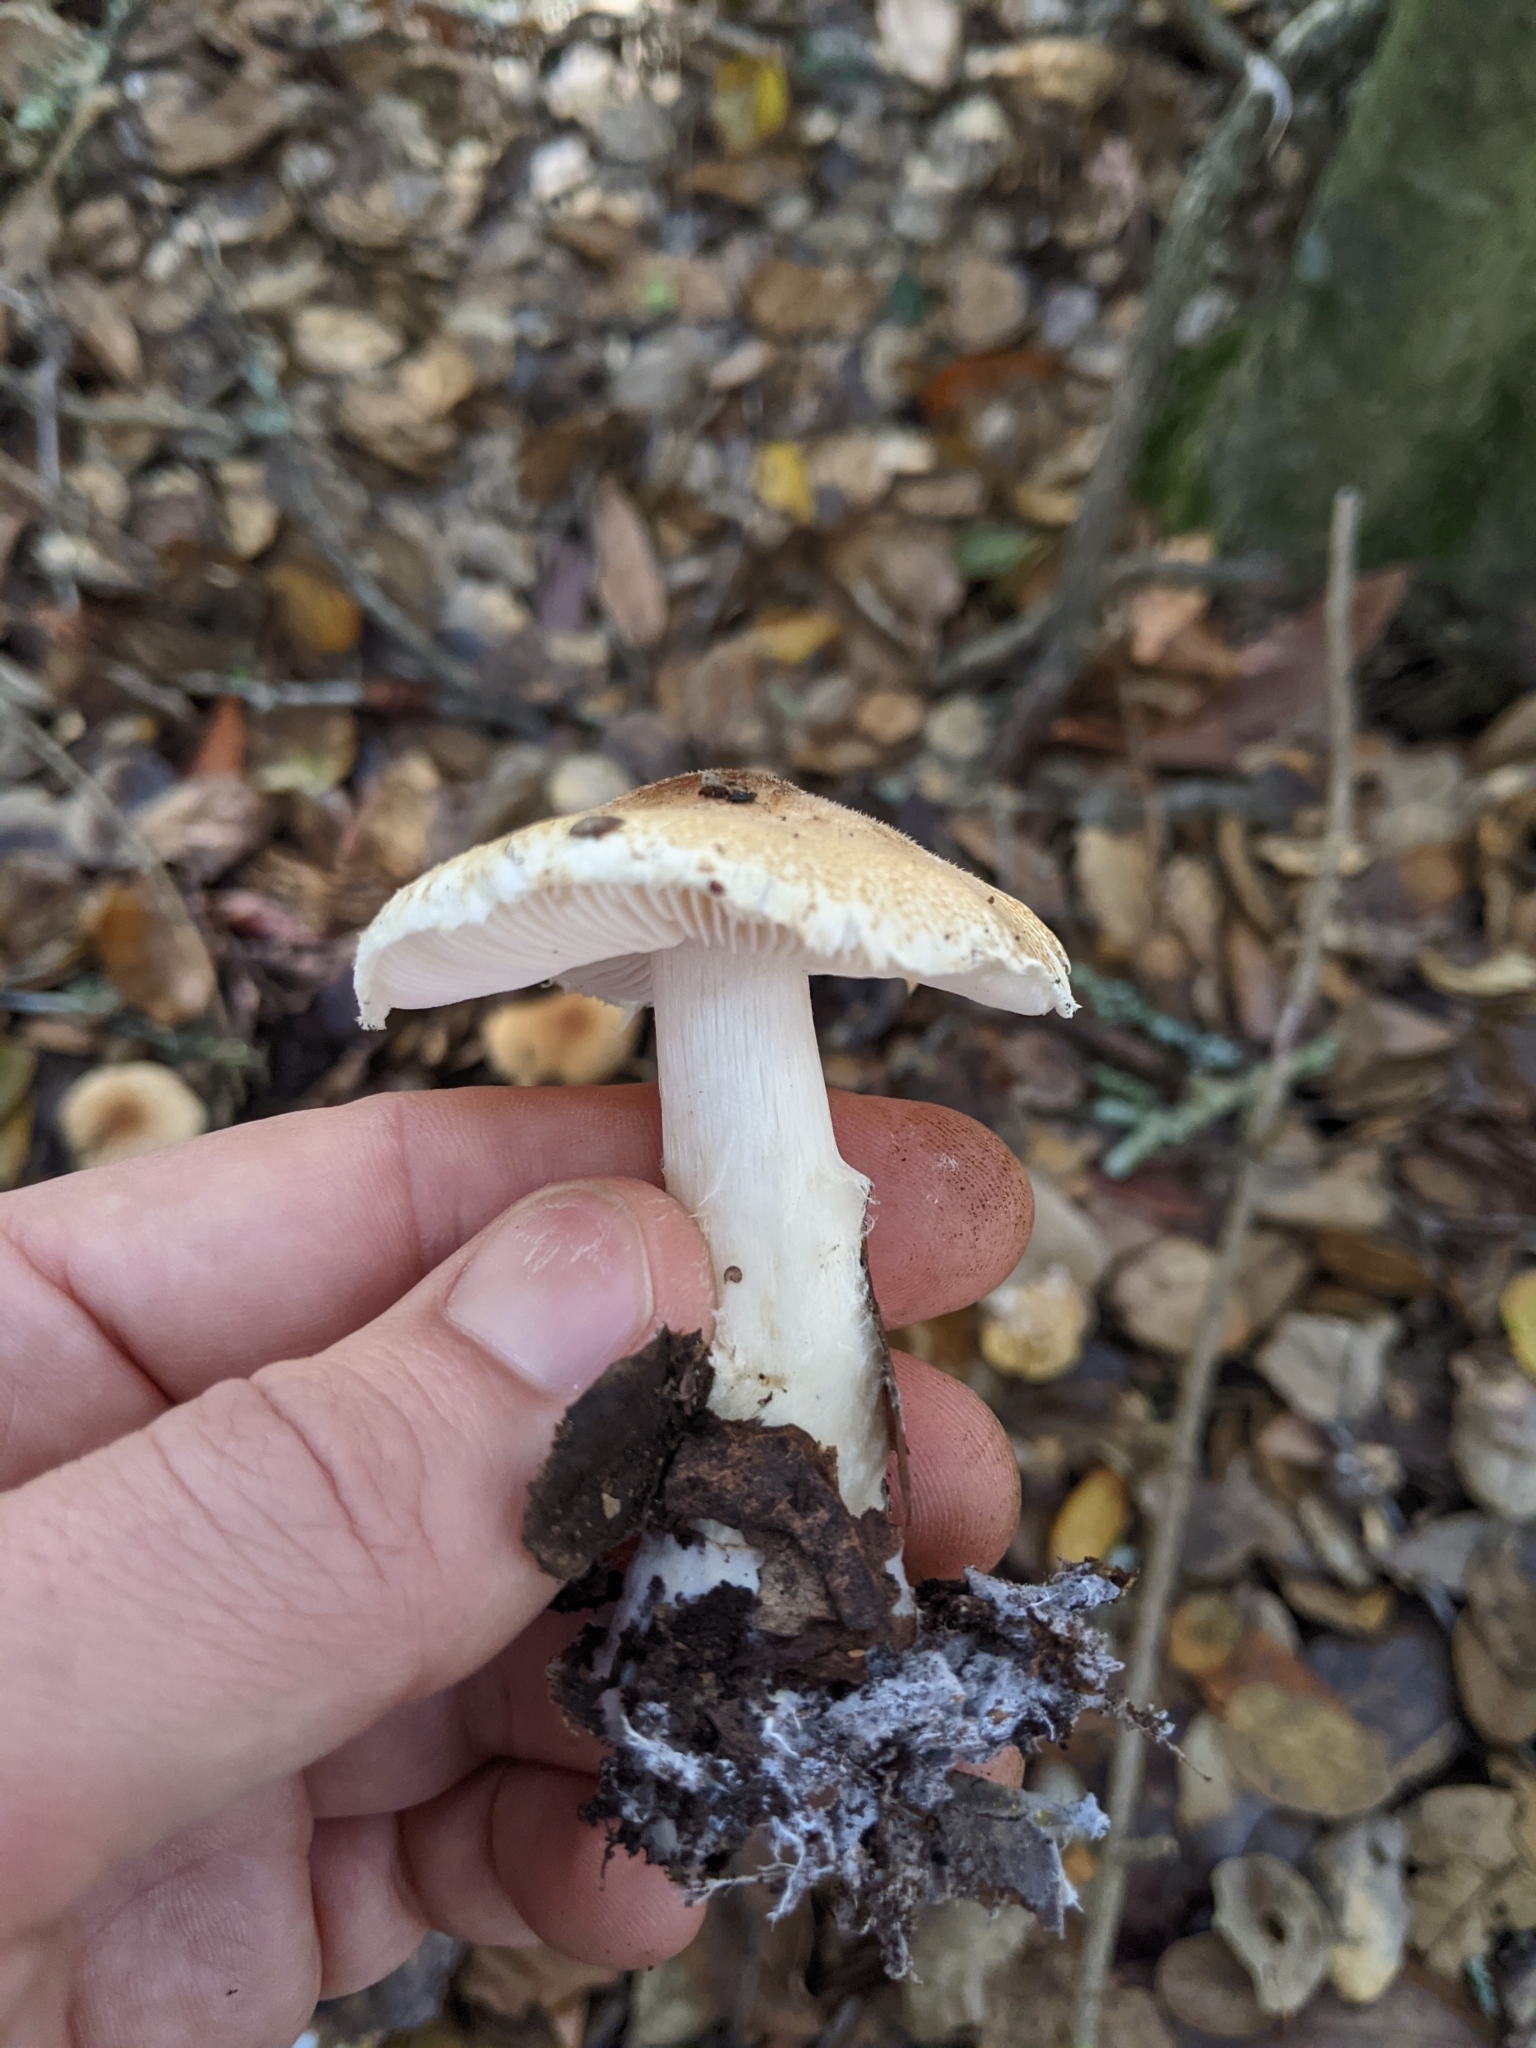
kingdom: Fungi
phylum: Basidiomycota
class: Agaricomycetes
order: Agaricales
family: Agaricaceae
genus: Lepiota
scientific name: Lepiota spheniscispora
